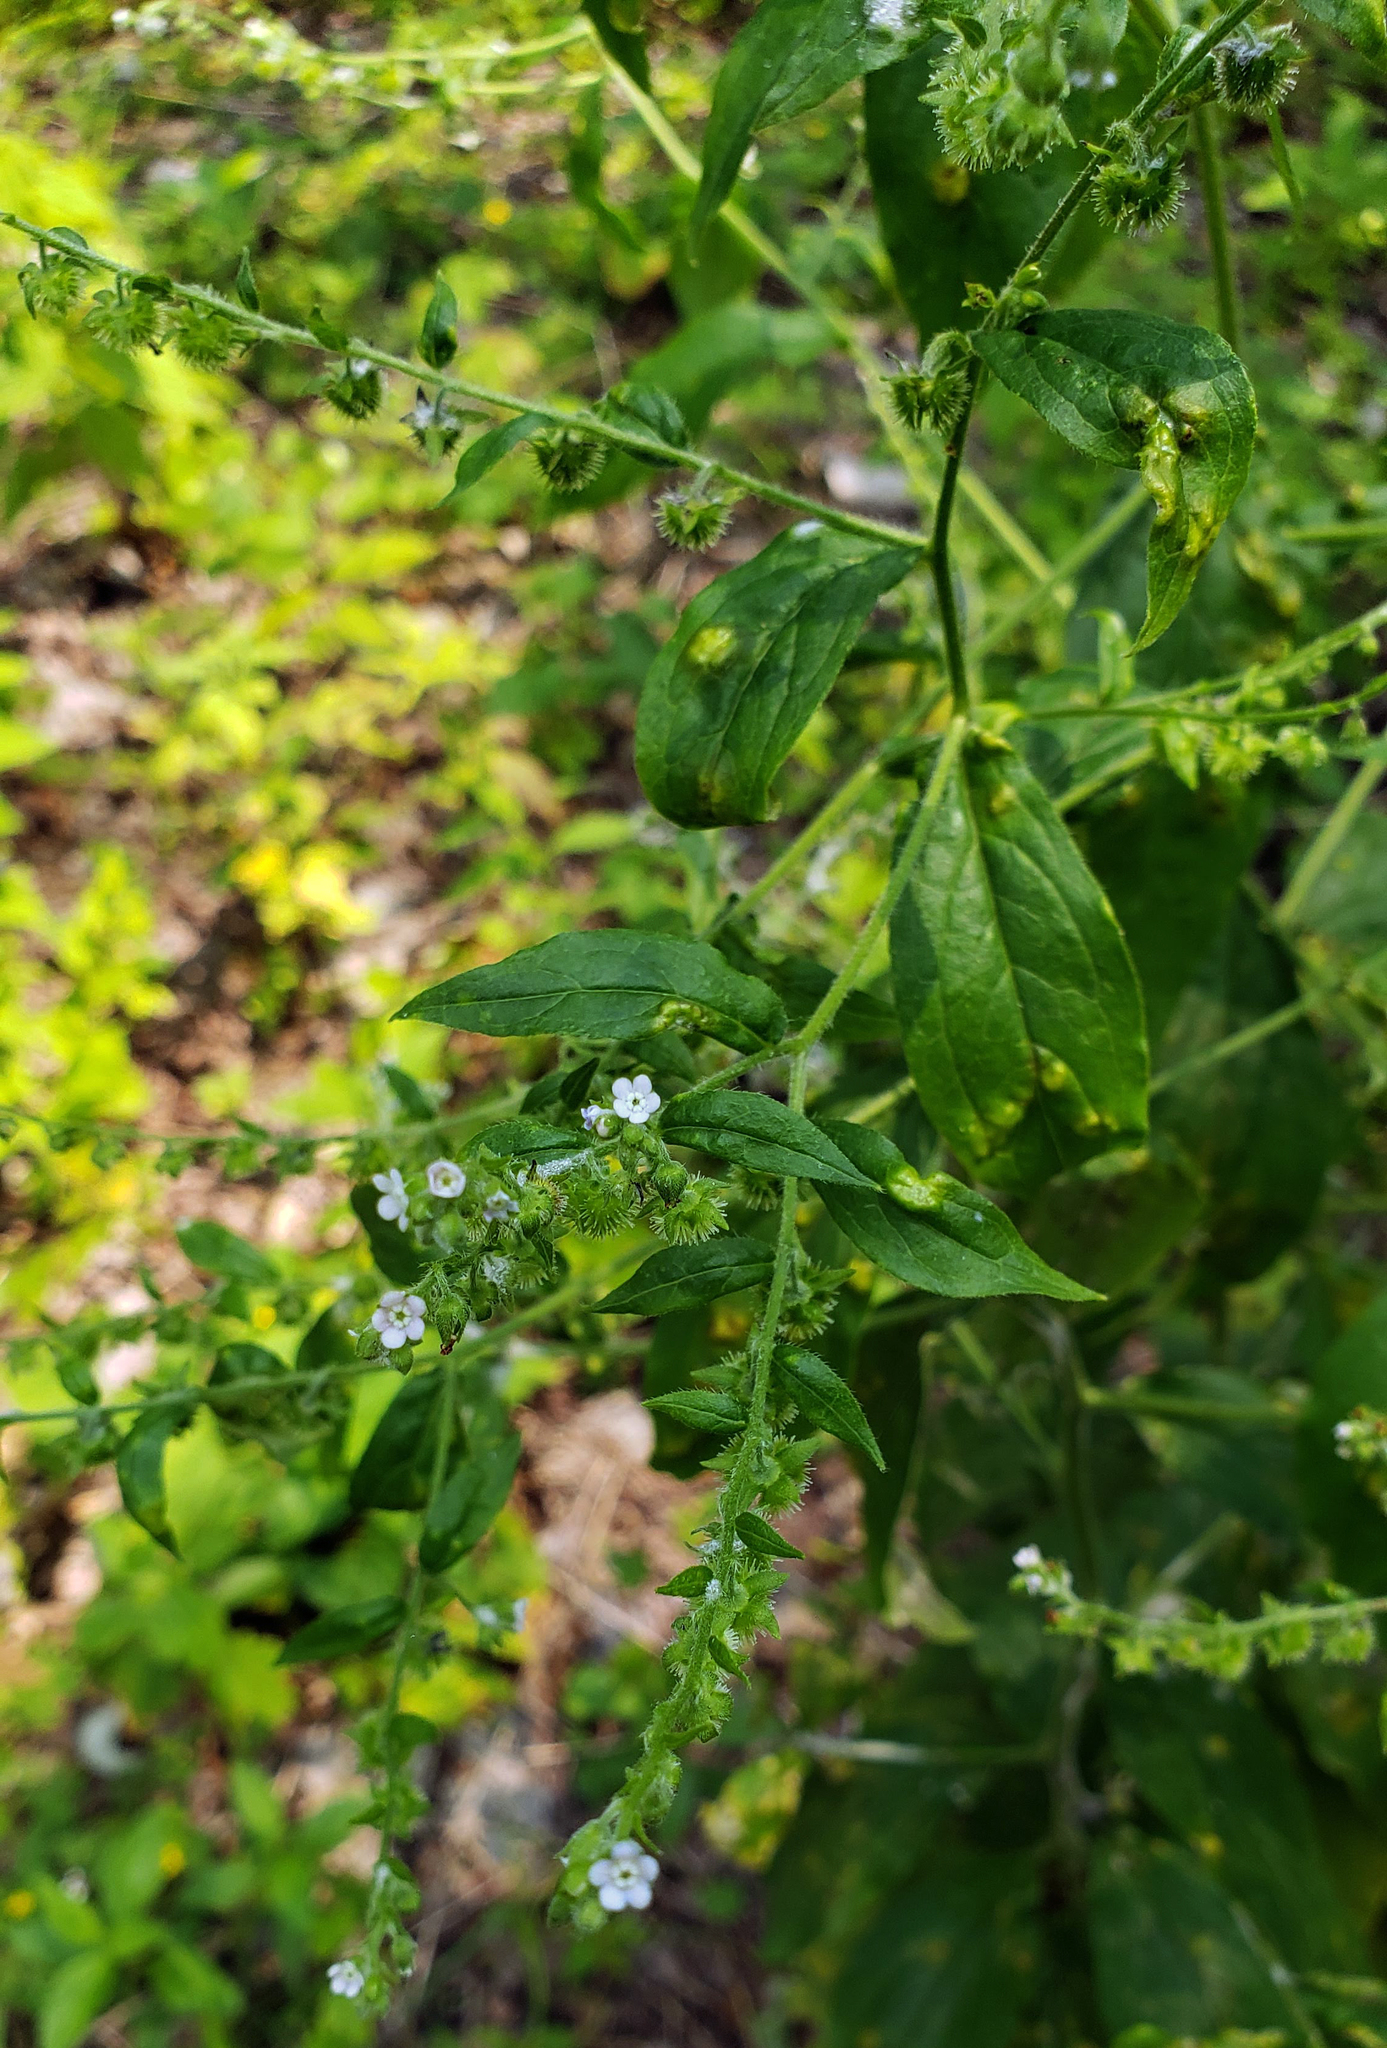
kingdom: Plantae
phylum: Tracheophyta
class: Magnoliopsida
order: Boraginales
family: Boraginaceae
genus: Hackelia
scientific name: Hackelia virginiana
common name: Beggar's-lice
